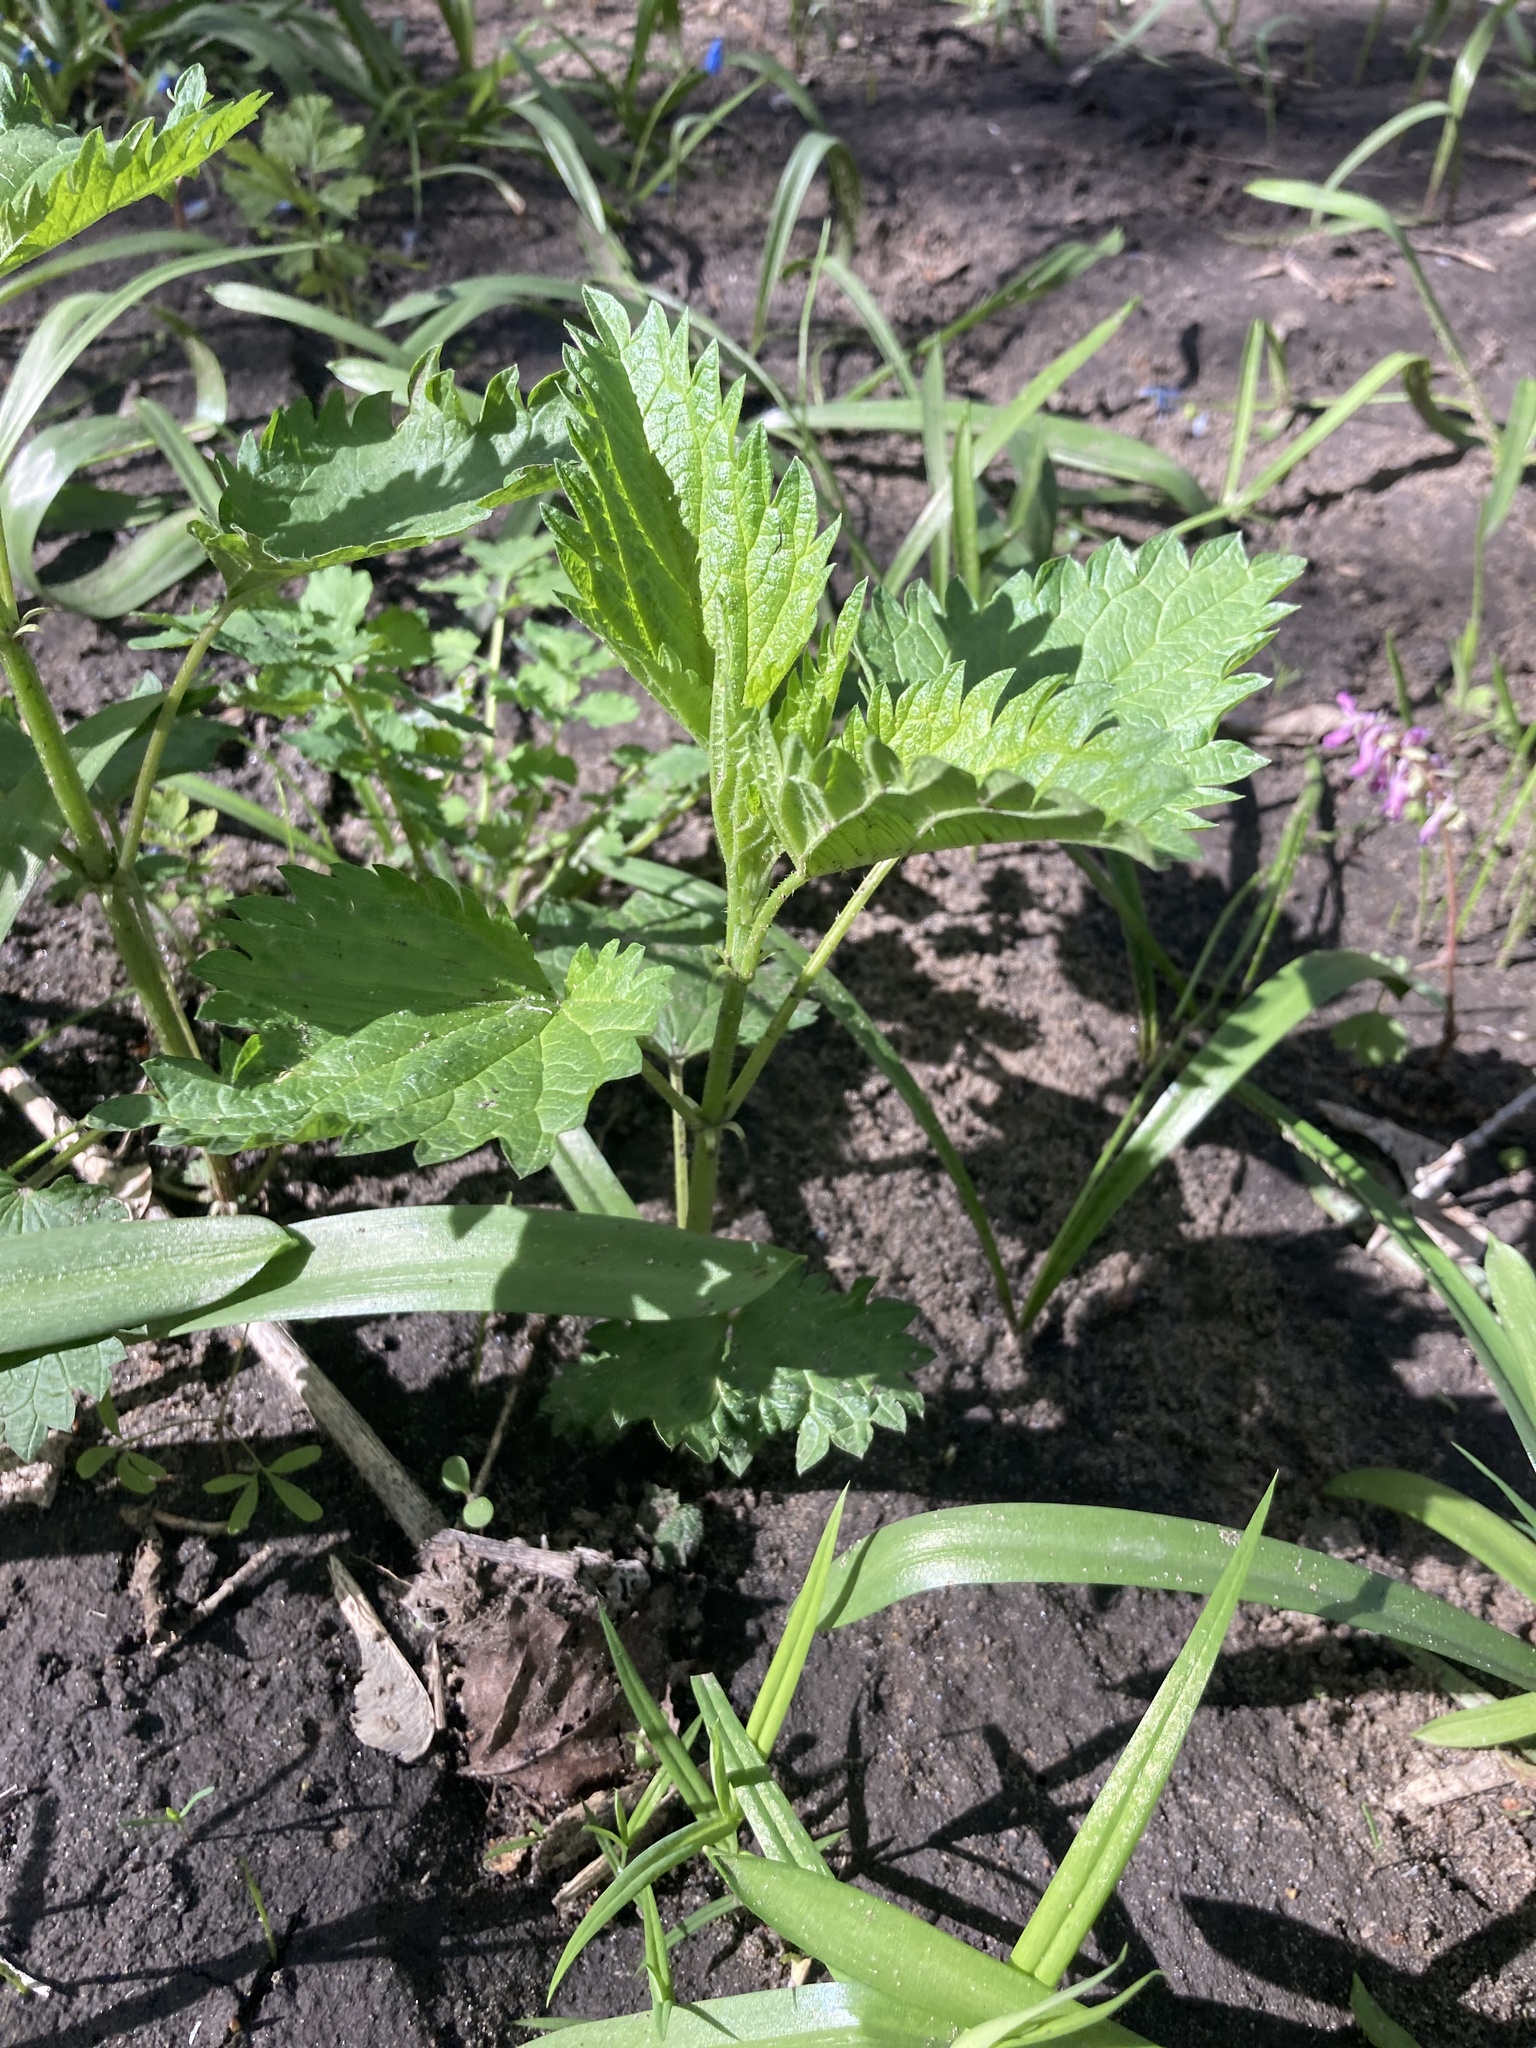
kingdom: Plantae
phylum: Tracheophyta
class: Magnoliopsida
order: Rosales
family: Urticaceae
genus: Urtica
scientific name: Urtica dioica
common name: Common nettle
